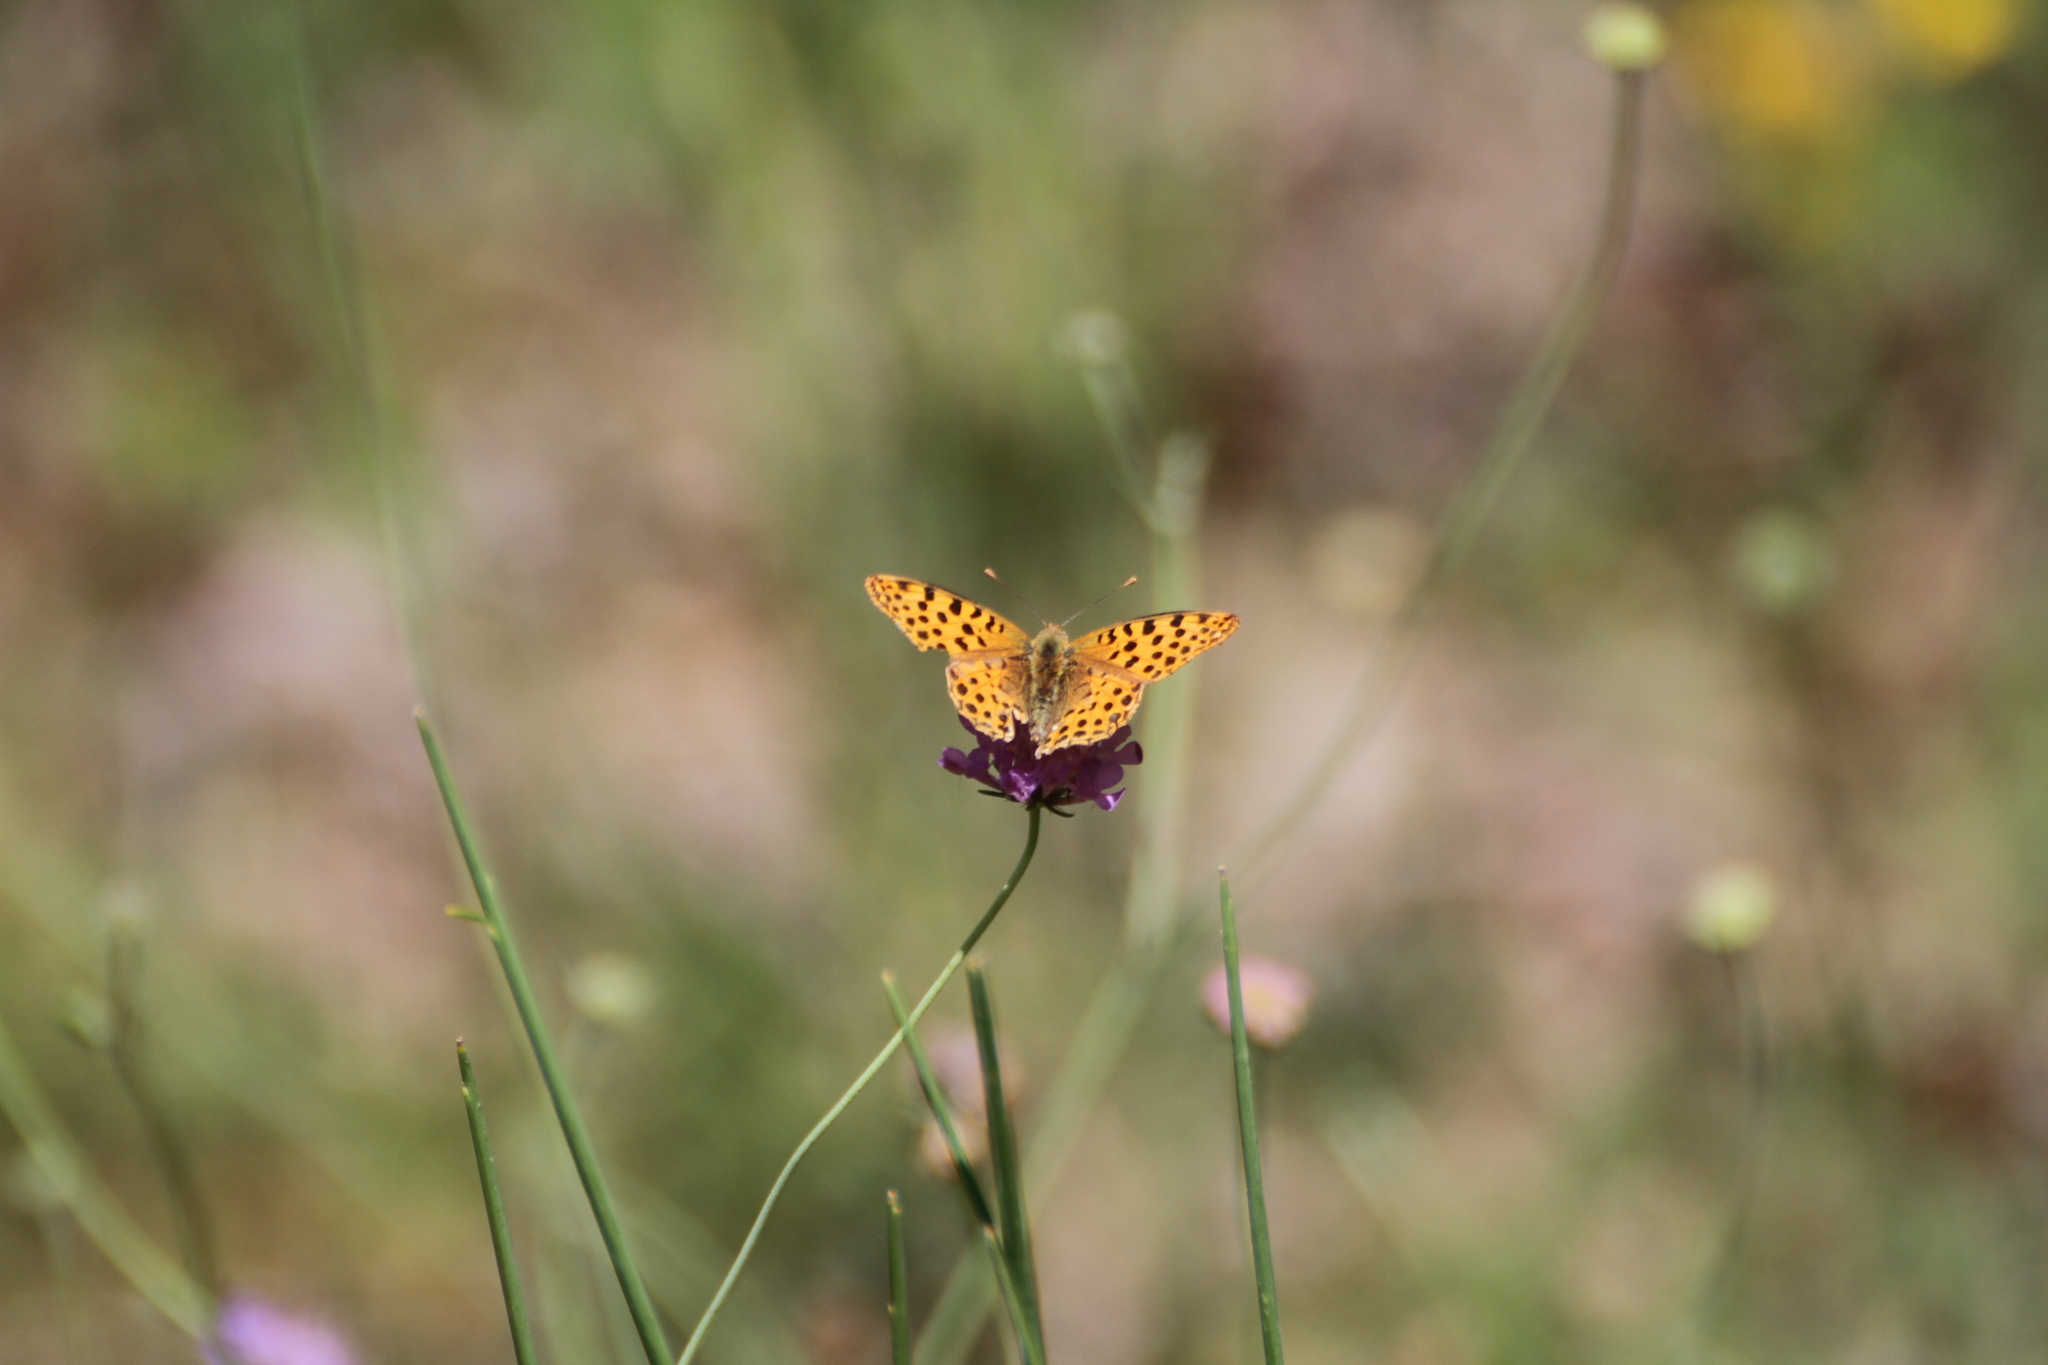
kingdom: Animalia
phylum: Arthropoda
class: Insecta
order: Lepidoptera
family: Nymphalidae
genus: Issoria
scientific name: Issoria lathonia
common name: Queen of spain fritillary
